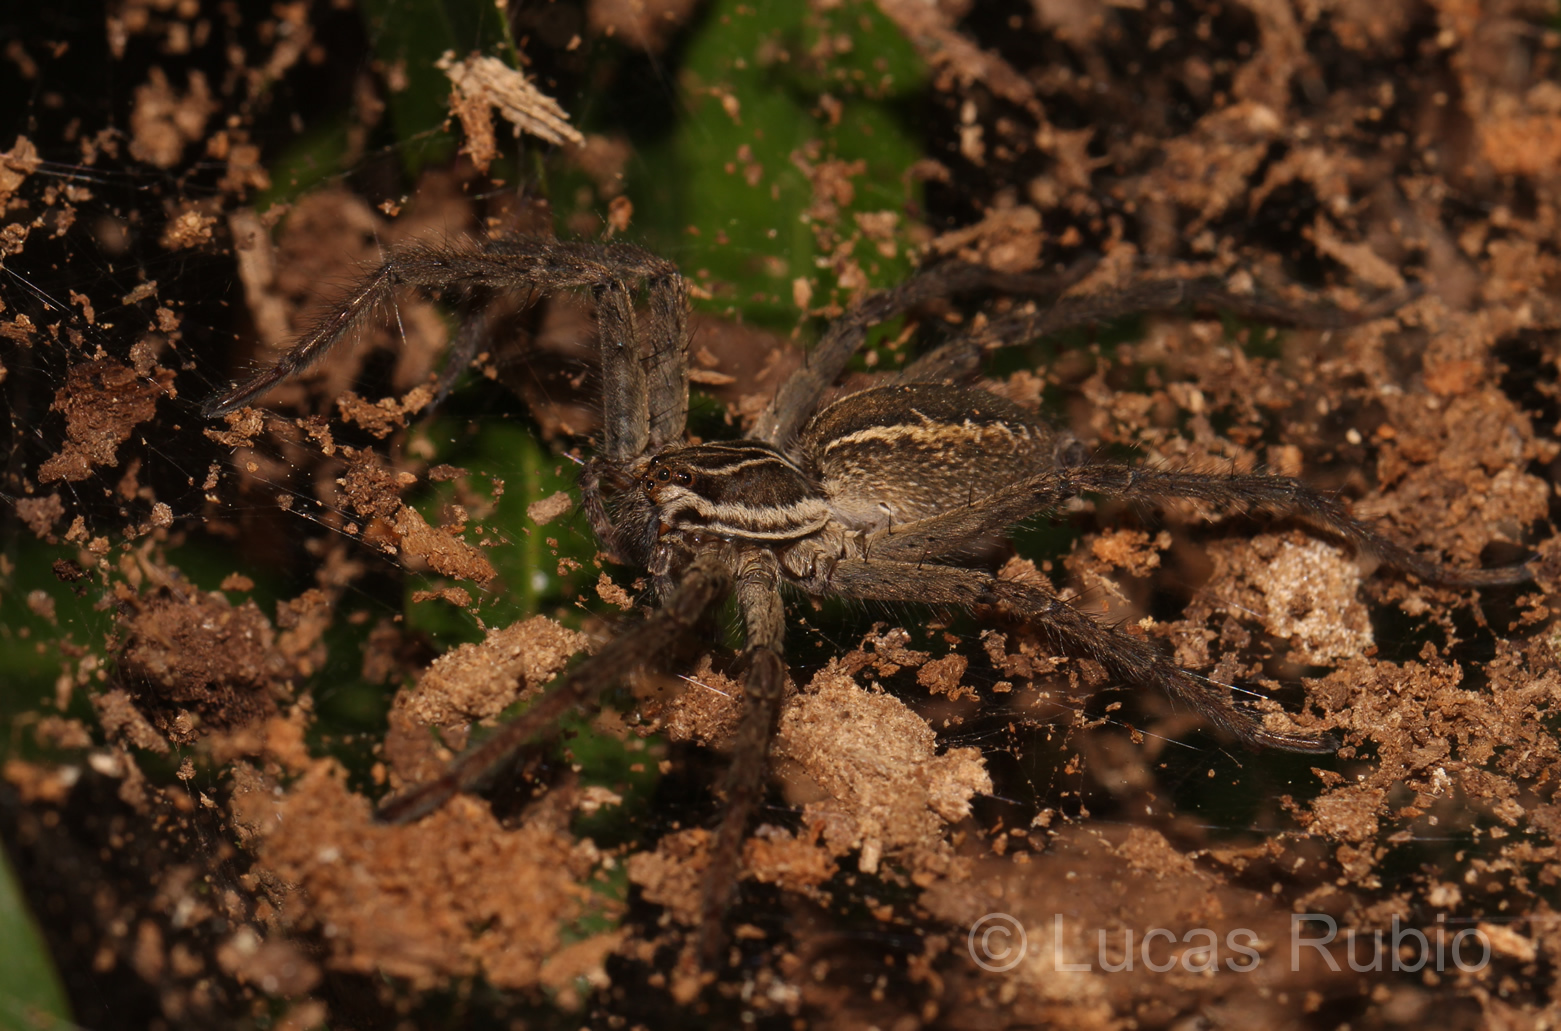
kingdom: Animalia
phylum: Arthropoda
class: Arachnida
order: Araneae
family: Lycosidae
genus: Aglaoctenus
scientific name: Aglaoctenus lagotis
